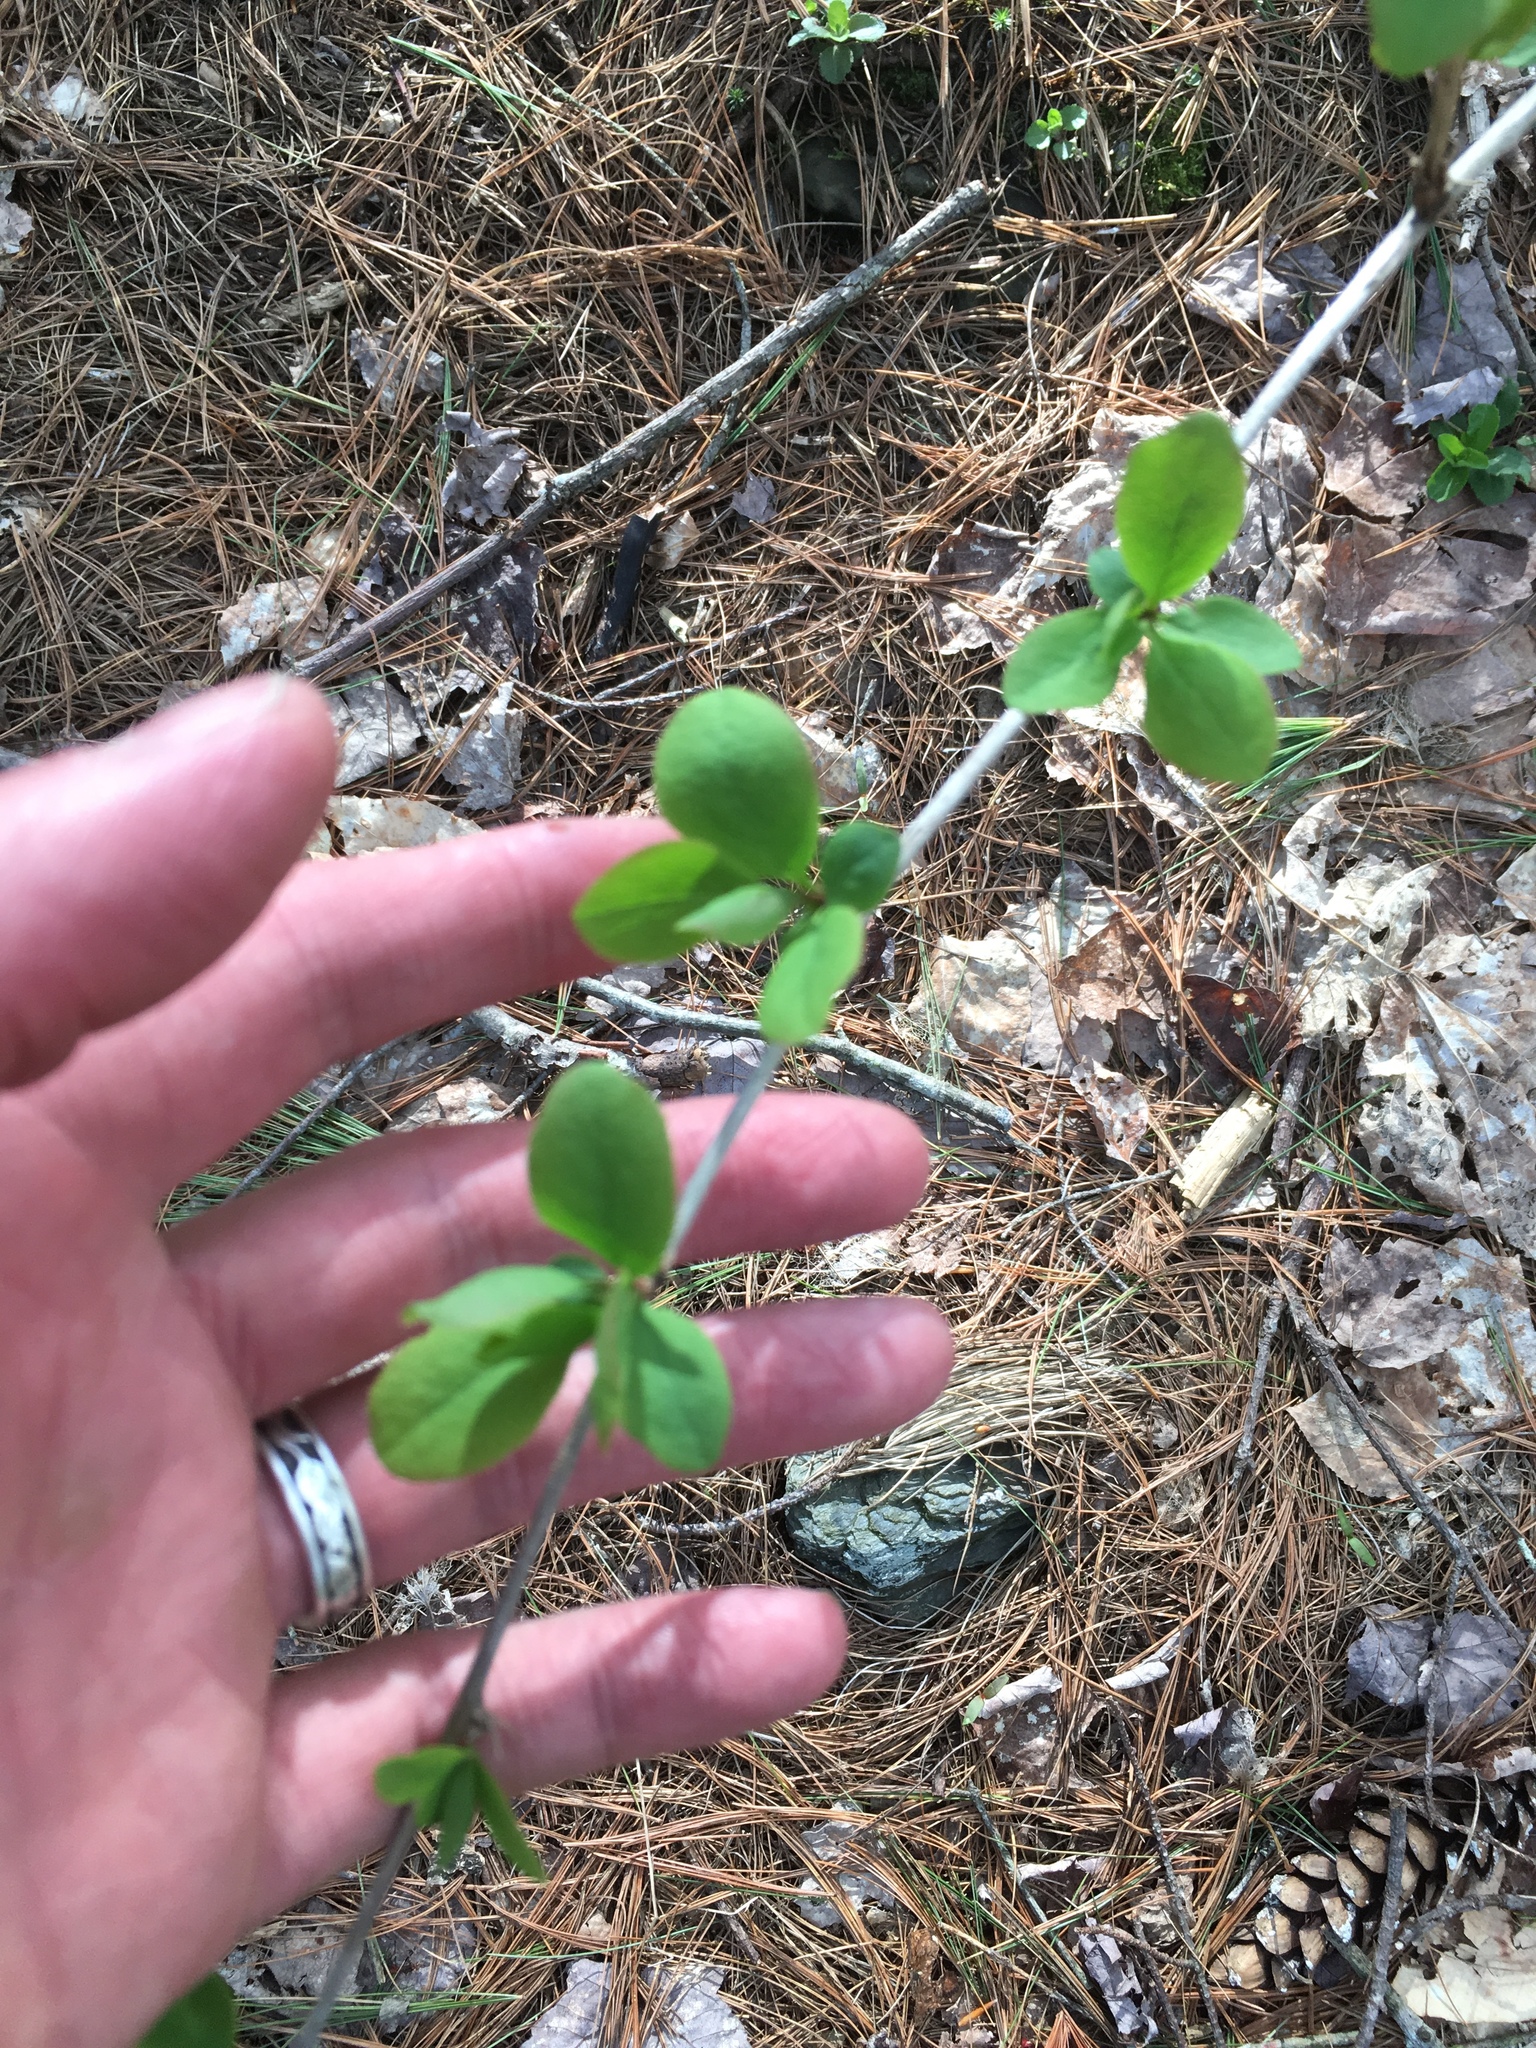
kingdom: Plantae
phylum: Tracheophyta
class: Magnoliopsida
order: Ranunculales
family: Berberidaceae
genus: Berberis
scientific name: Berberis thunbergii
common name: Japanese barberry
